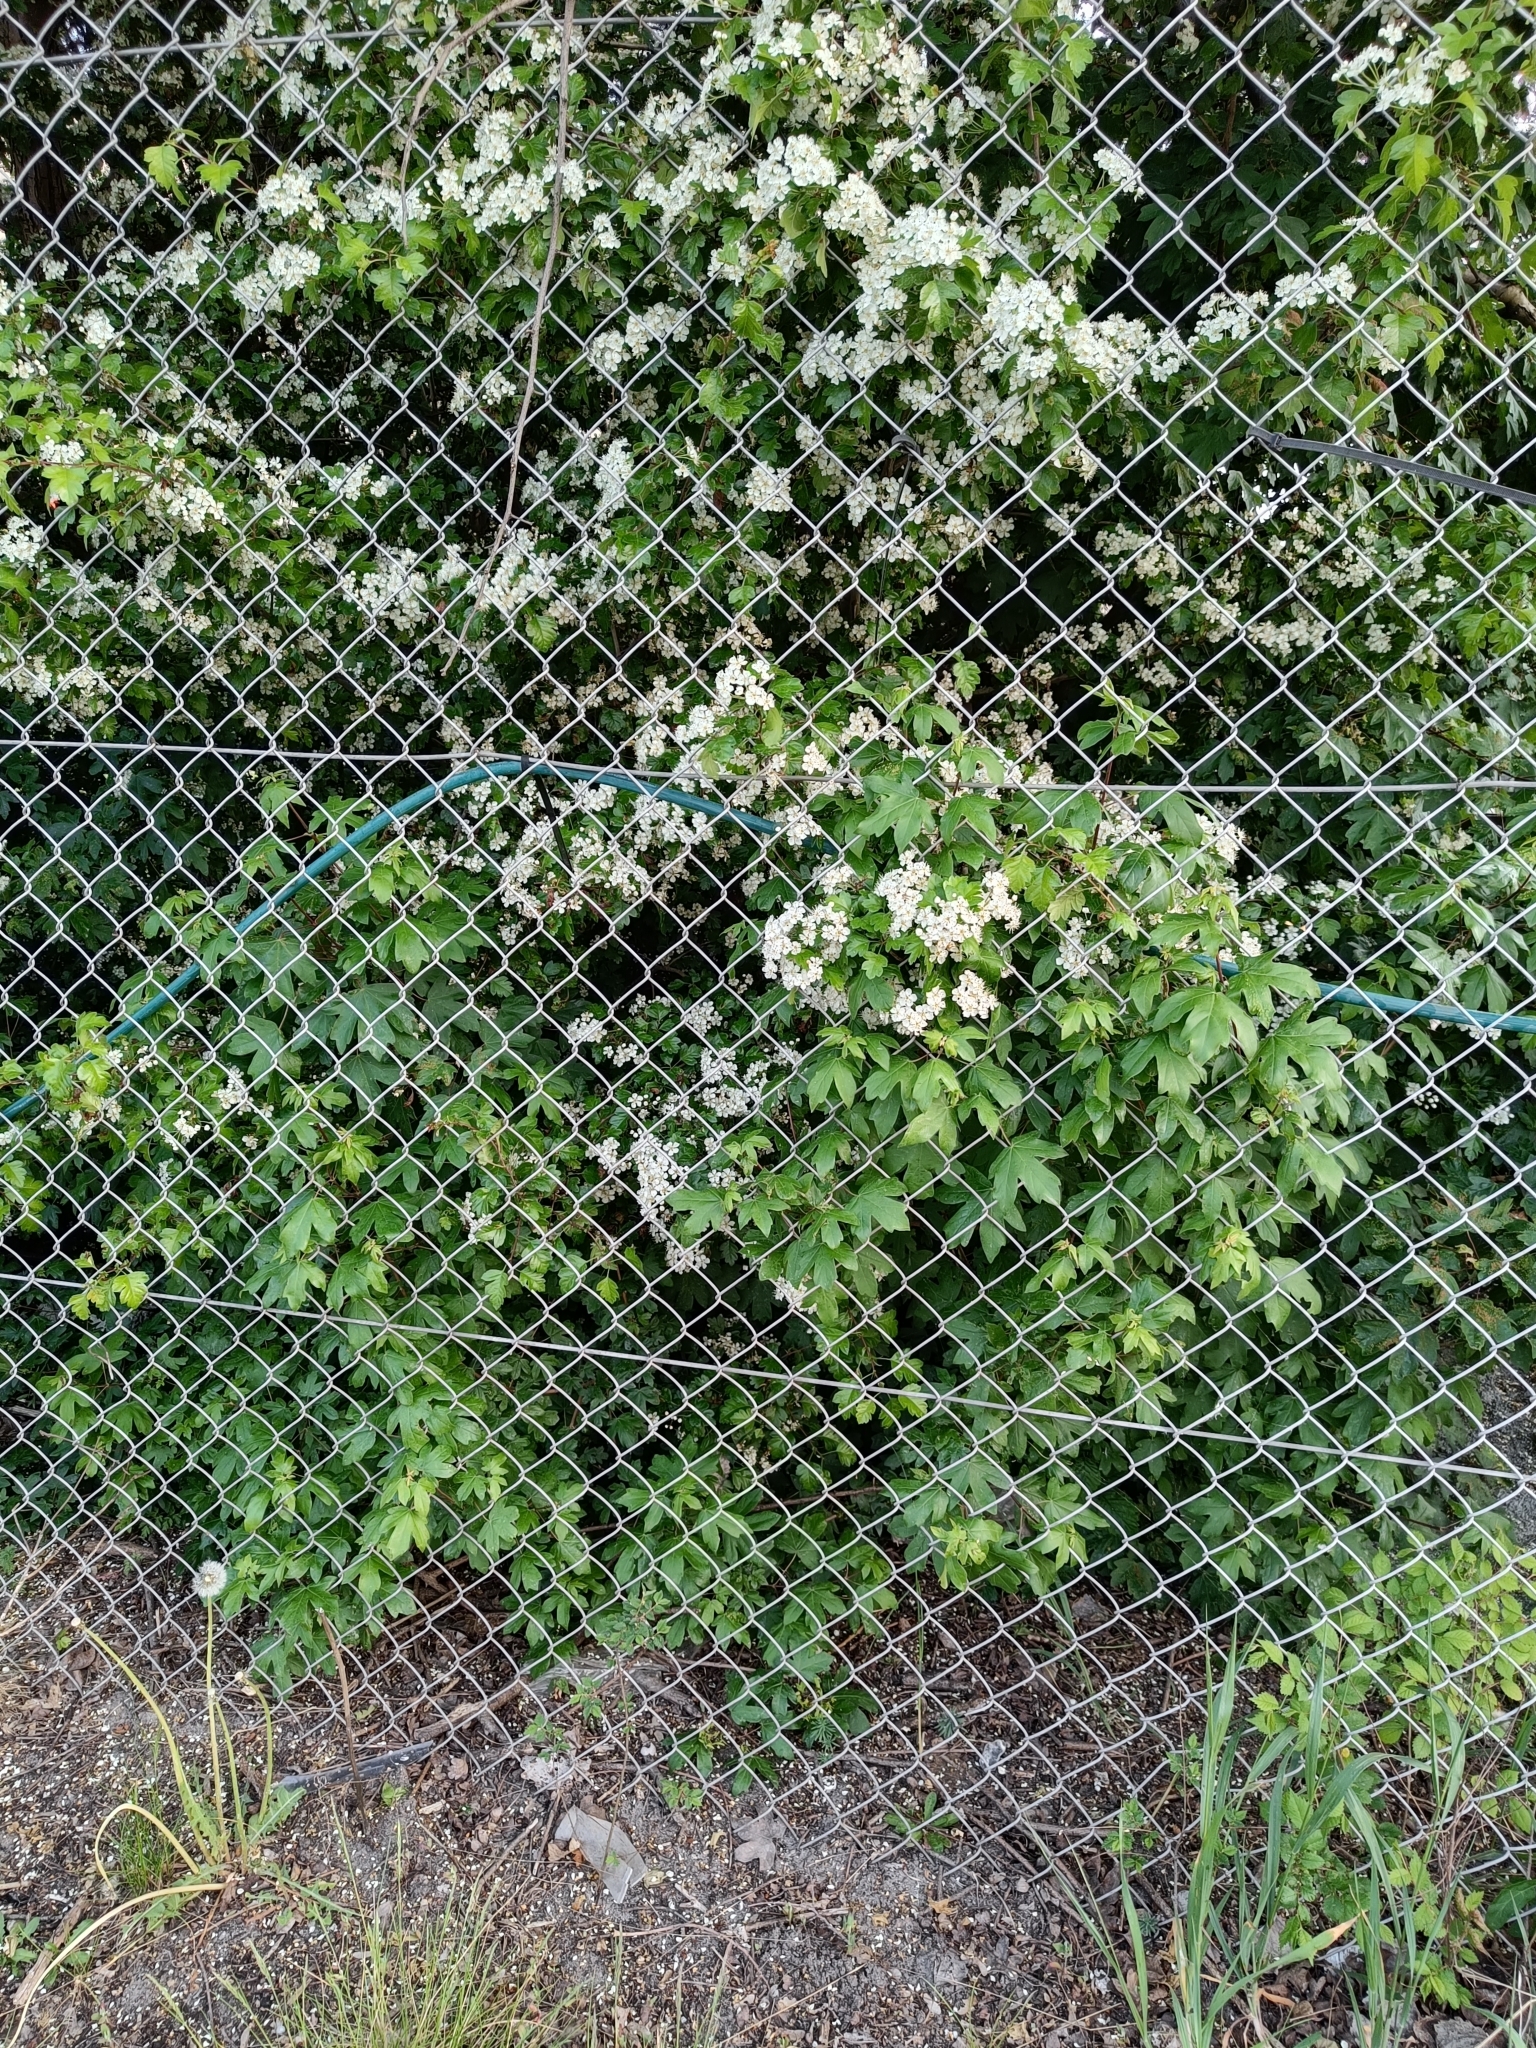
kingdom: Plantae
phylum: Tracheophyta
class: Magnoliopsida
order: Sapindales
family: Sapindaceae
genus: Acer
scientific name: Acer campestre
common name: Field maple
